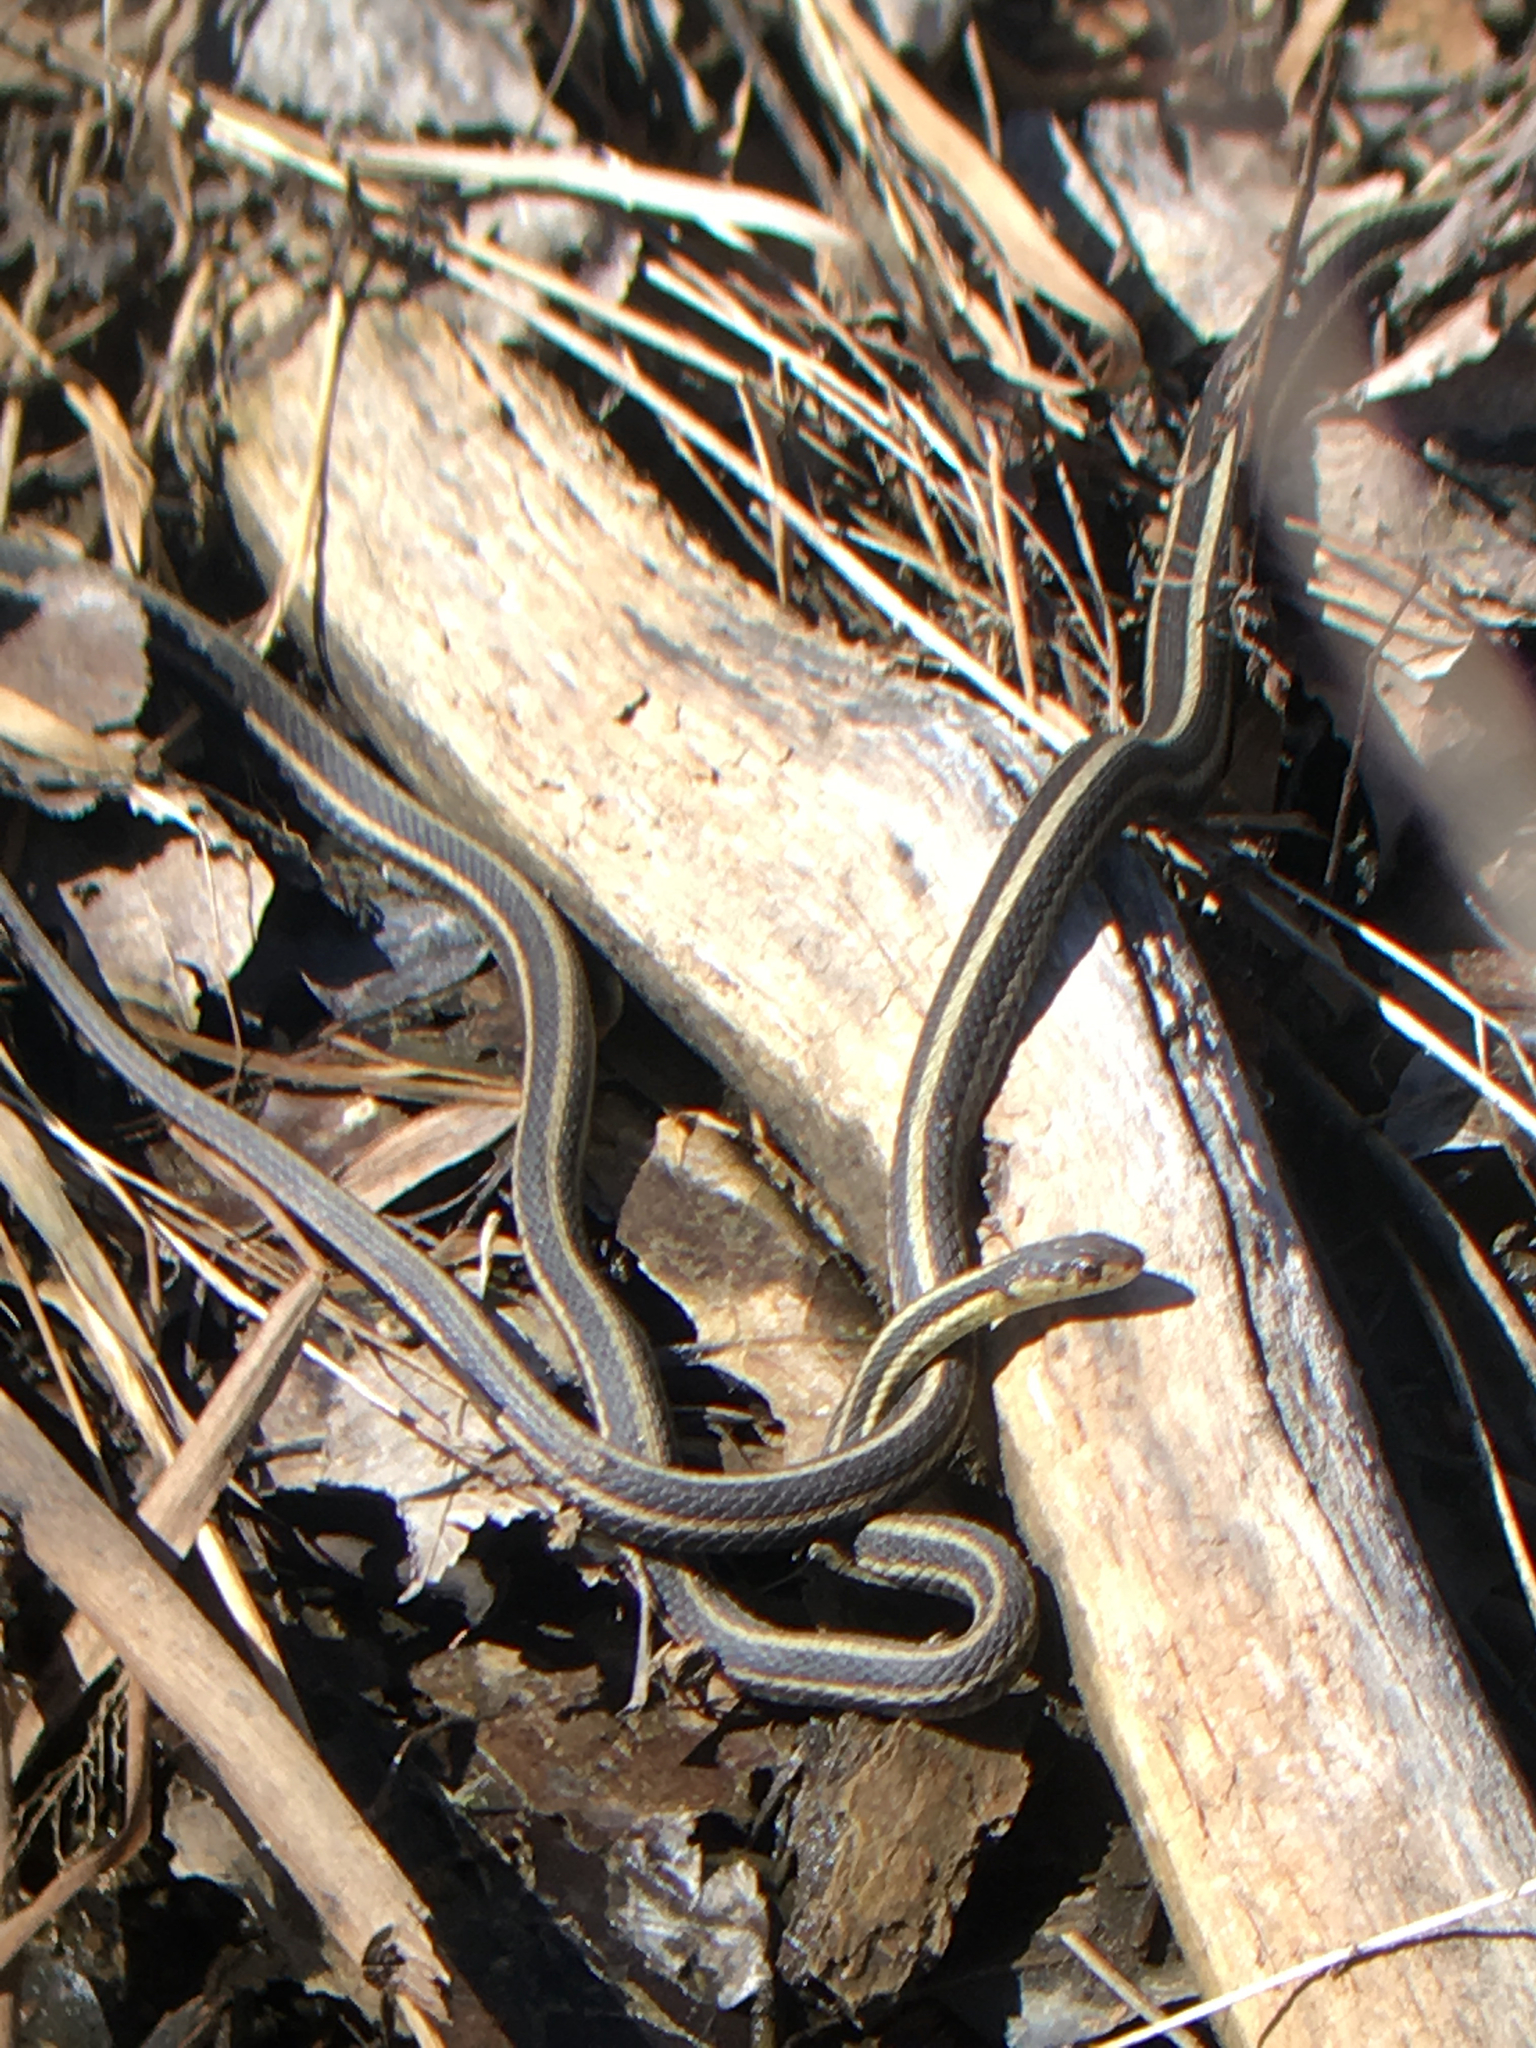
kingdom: Animalia
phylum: Chordata
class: Squamata
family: Colubridae
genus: Thamnophis
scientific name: Thamnophis sirtalis
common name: Common garter snake
